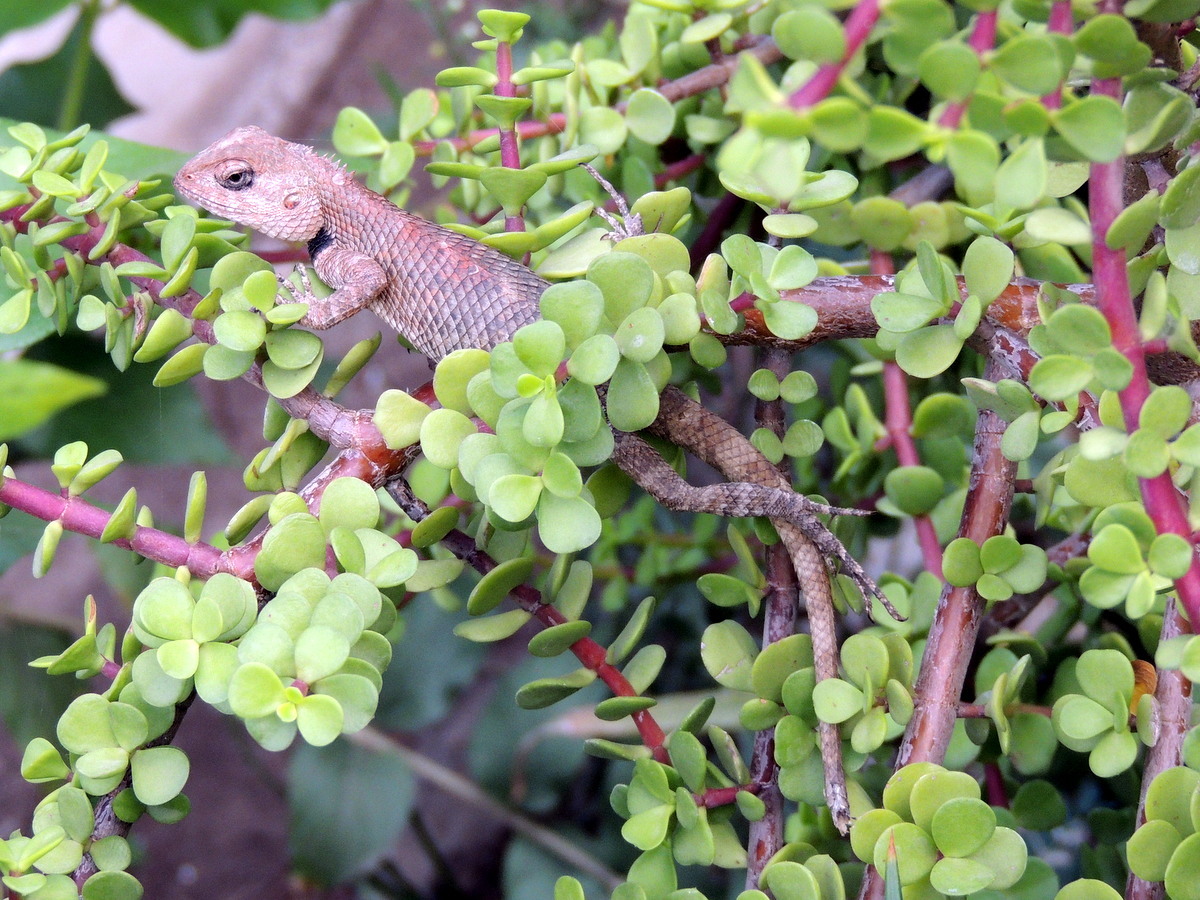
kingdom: Animalia
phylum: Chordata
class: Squamata
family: Agamidae
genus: Calotes
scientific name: Calotes versicolor
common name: Oriental garden lizard
